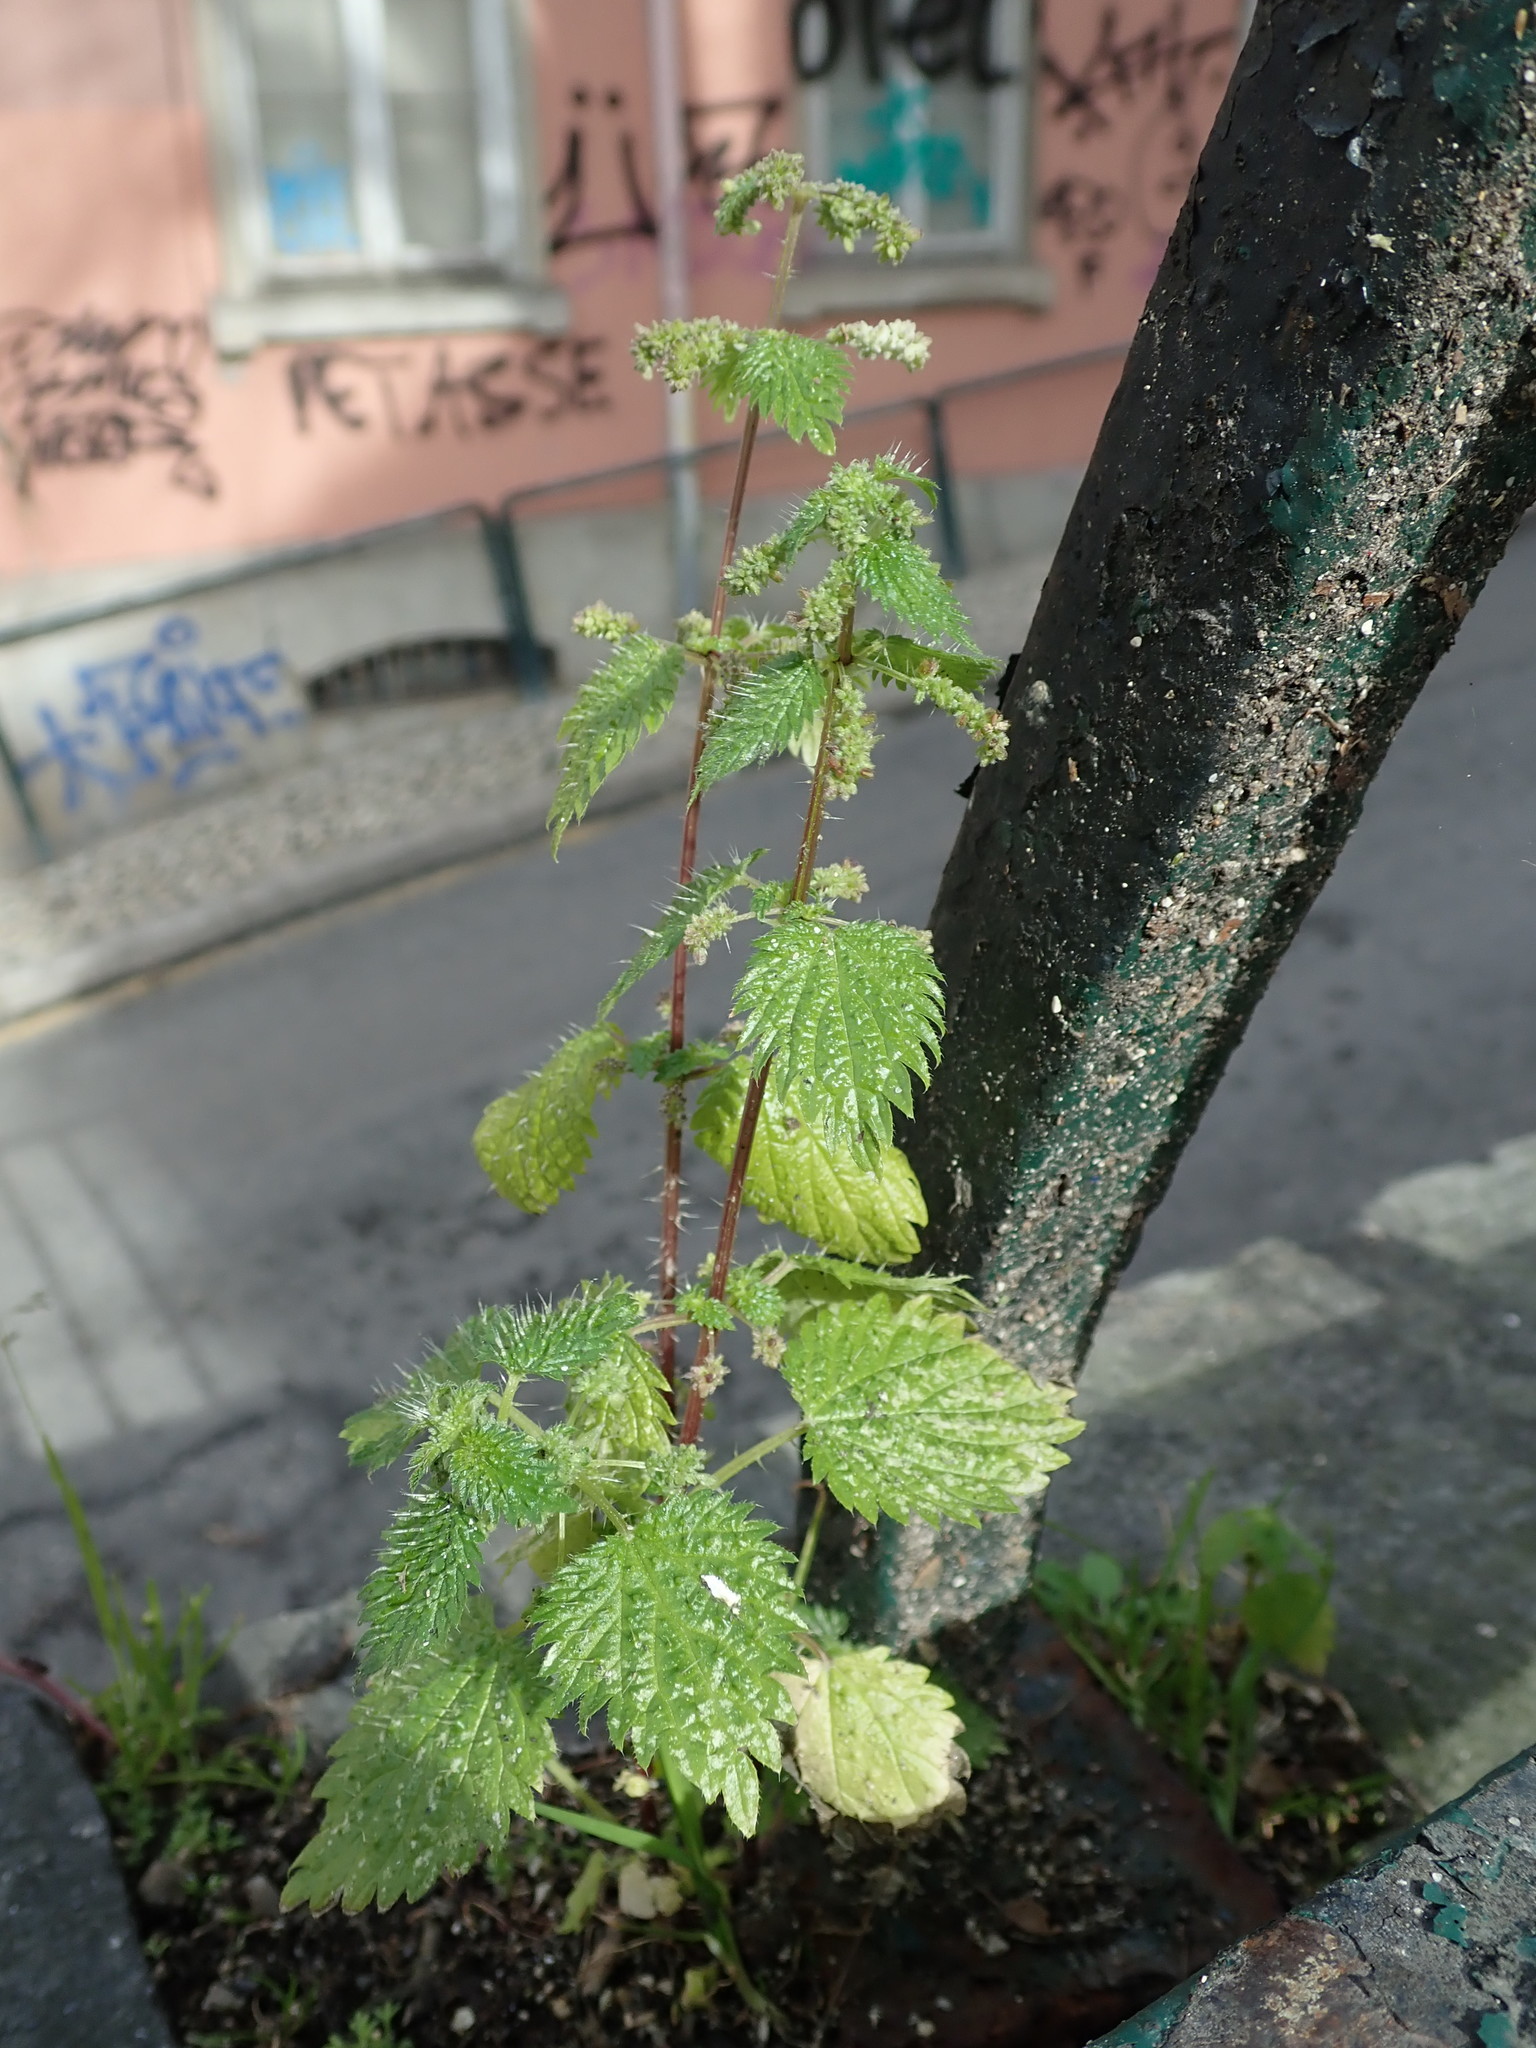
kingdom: Plantae
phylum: Tracheophyta
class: Magnoliopsida
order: Rosales
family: Urticaceae
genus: Urtica
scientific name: Urtica membranacea
